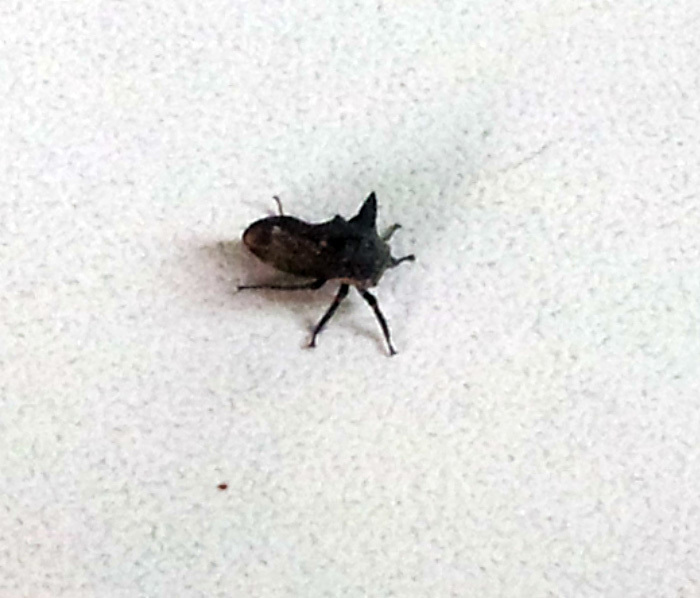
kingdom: Animalia
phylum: Arthropoda
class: Insecta
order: Hemiptera
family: Membracidae
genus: Acanthuchus
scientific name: Acanthuchus trispinifer
